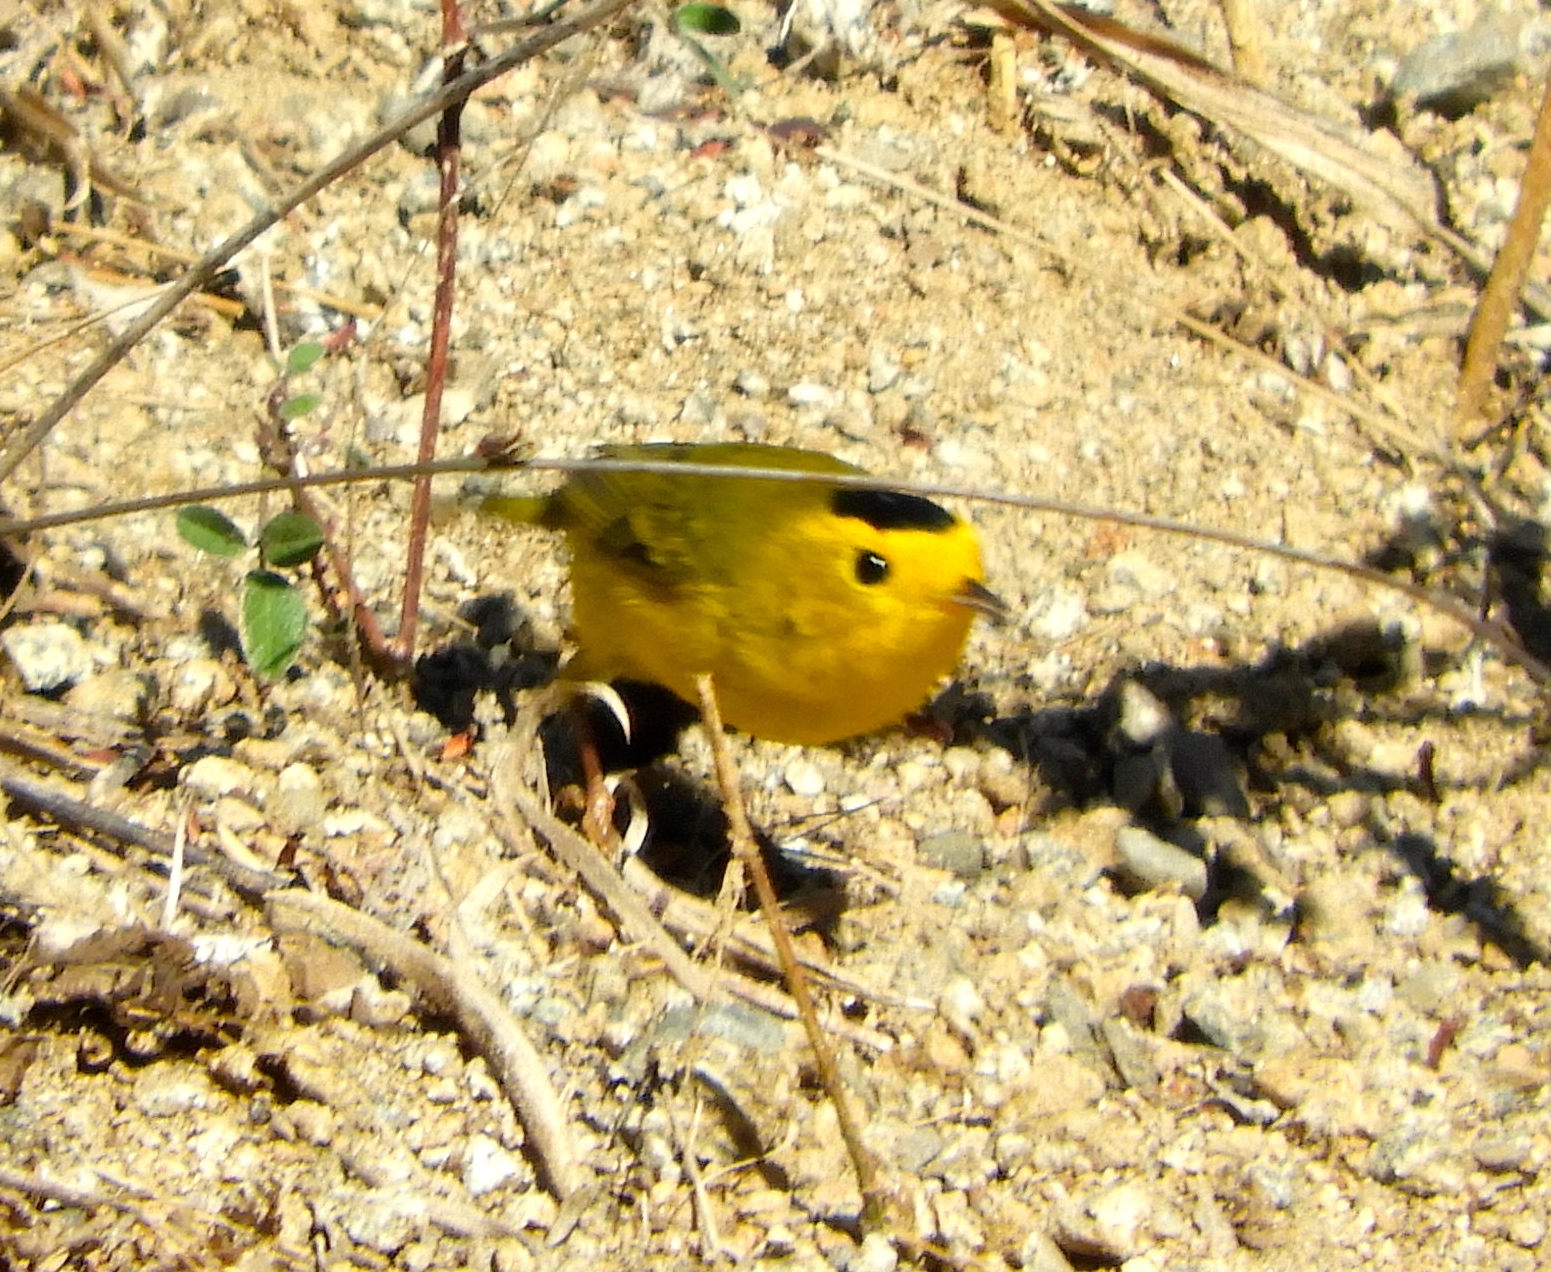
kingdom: Animalia
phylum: Chordata
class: Aves
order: Passeriformes
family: Parulidae
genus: Cardellina
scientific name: Cardellina pusilla
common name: Wilson's warbler
